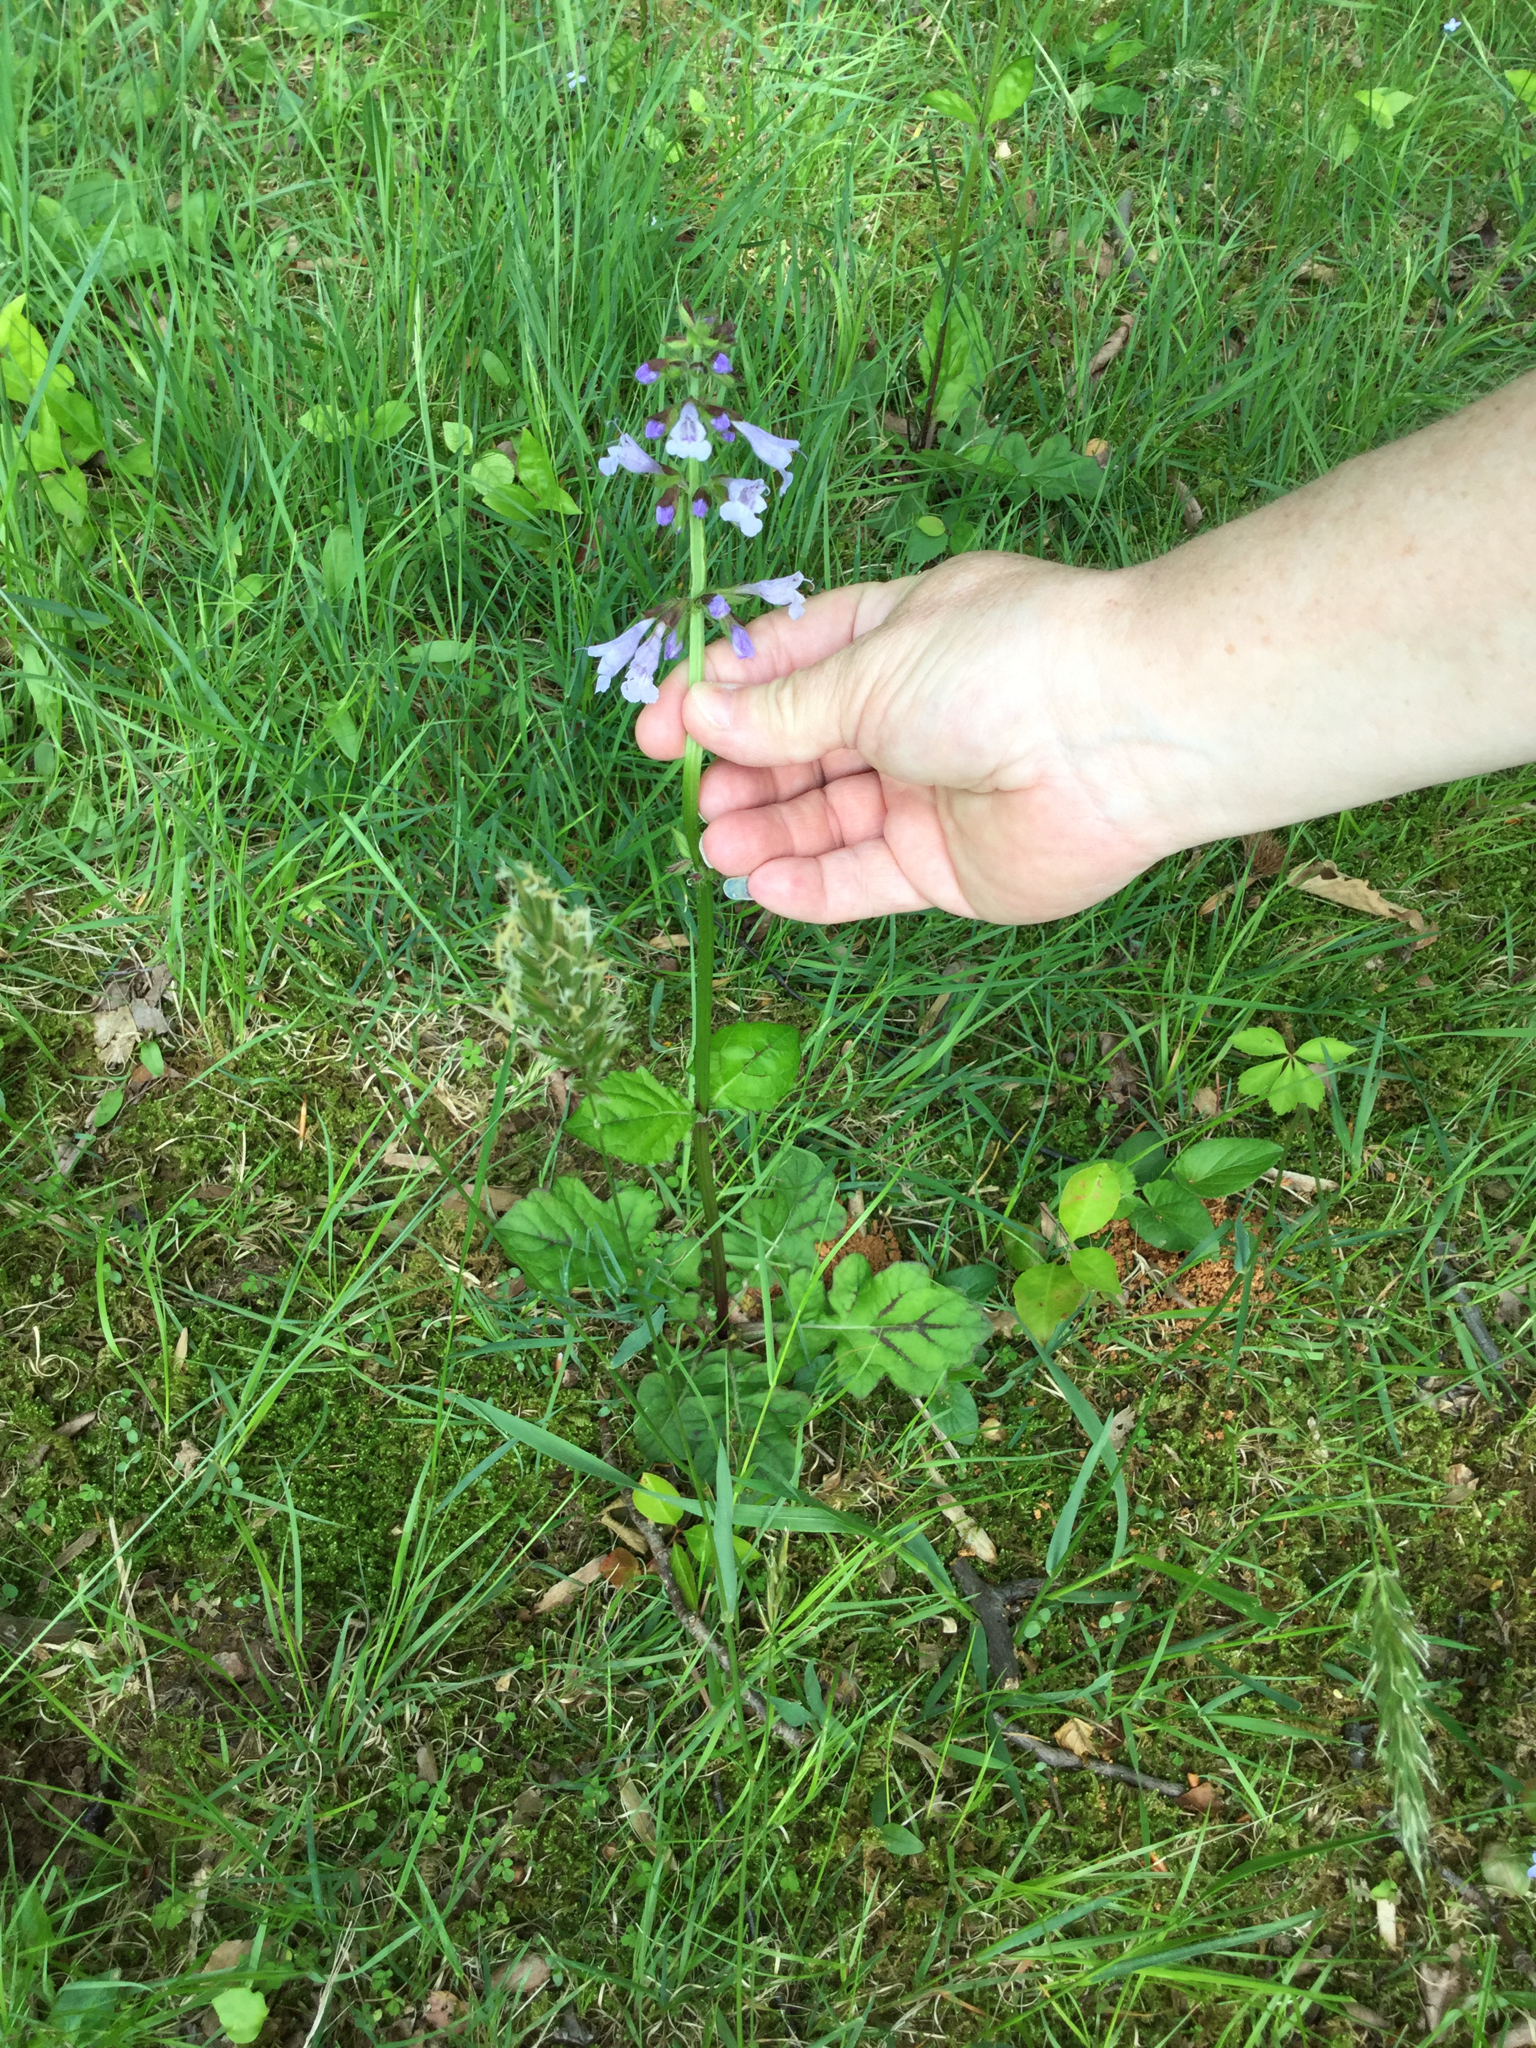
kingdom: Plantae
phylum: Tracheophyta
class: Magnoliopsida
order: Lamiales
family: Lamiaceae
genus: Salvia
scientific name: Salvia lyrata
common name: Cancerweed
